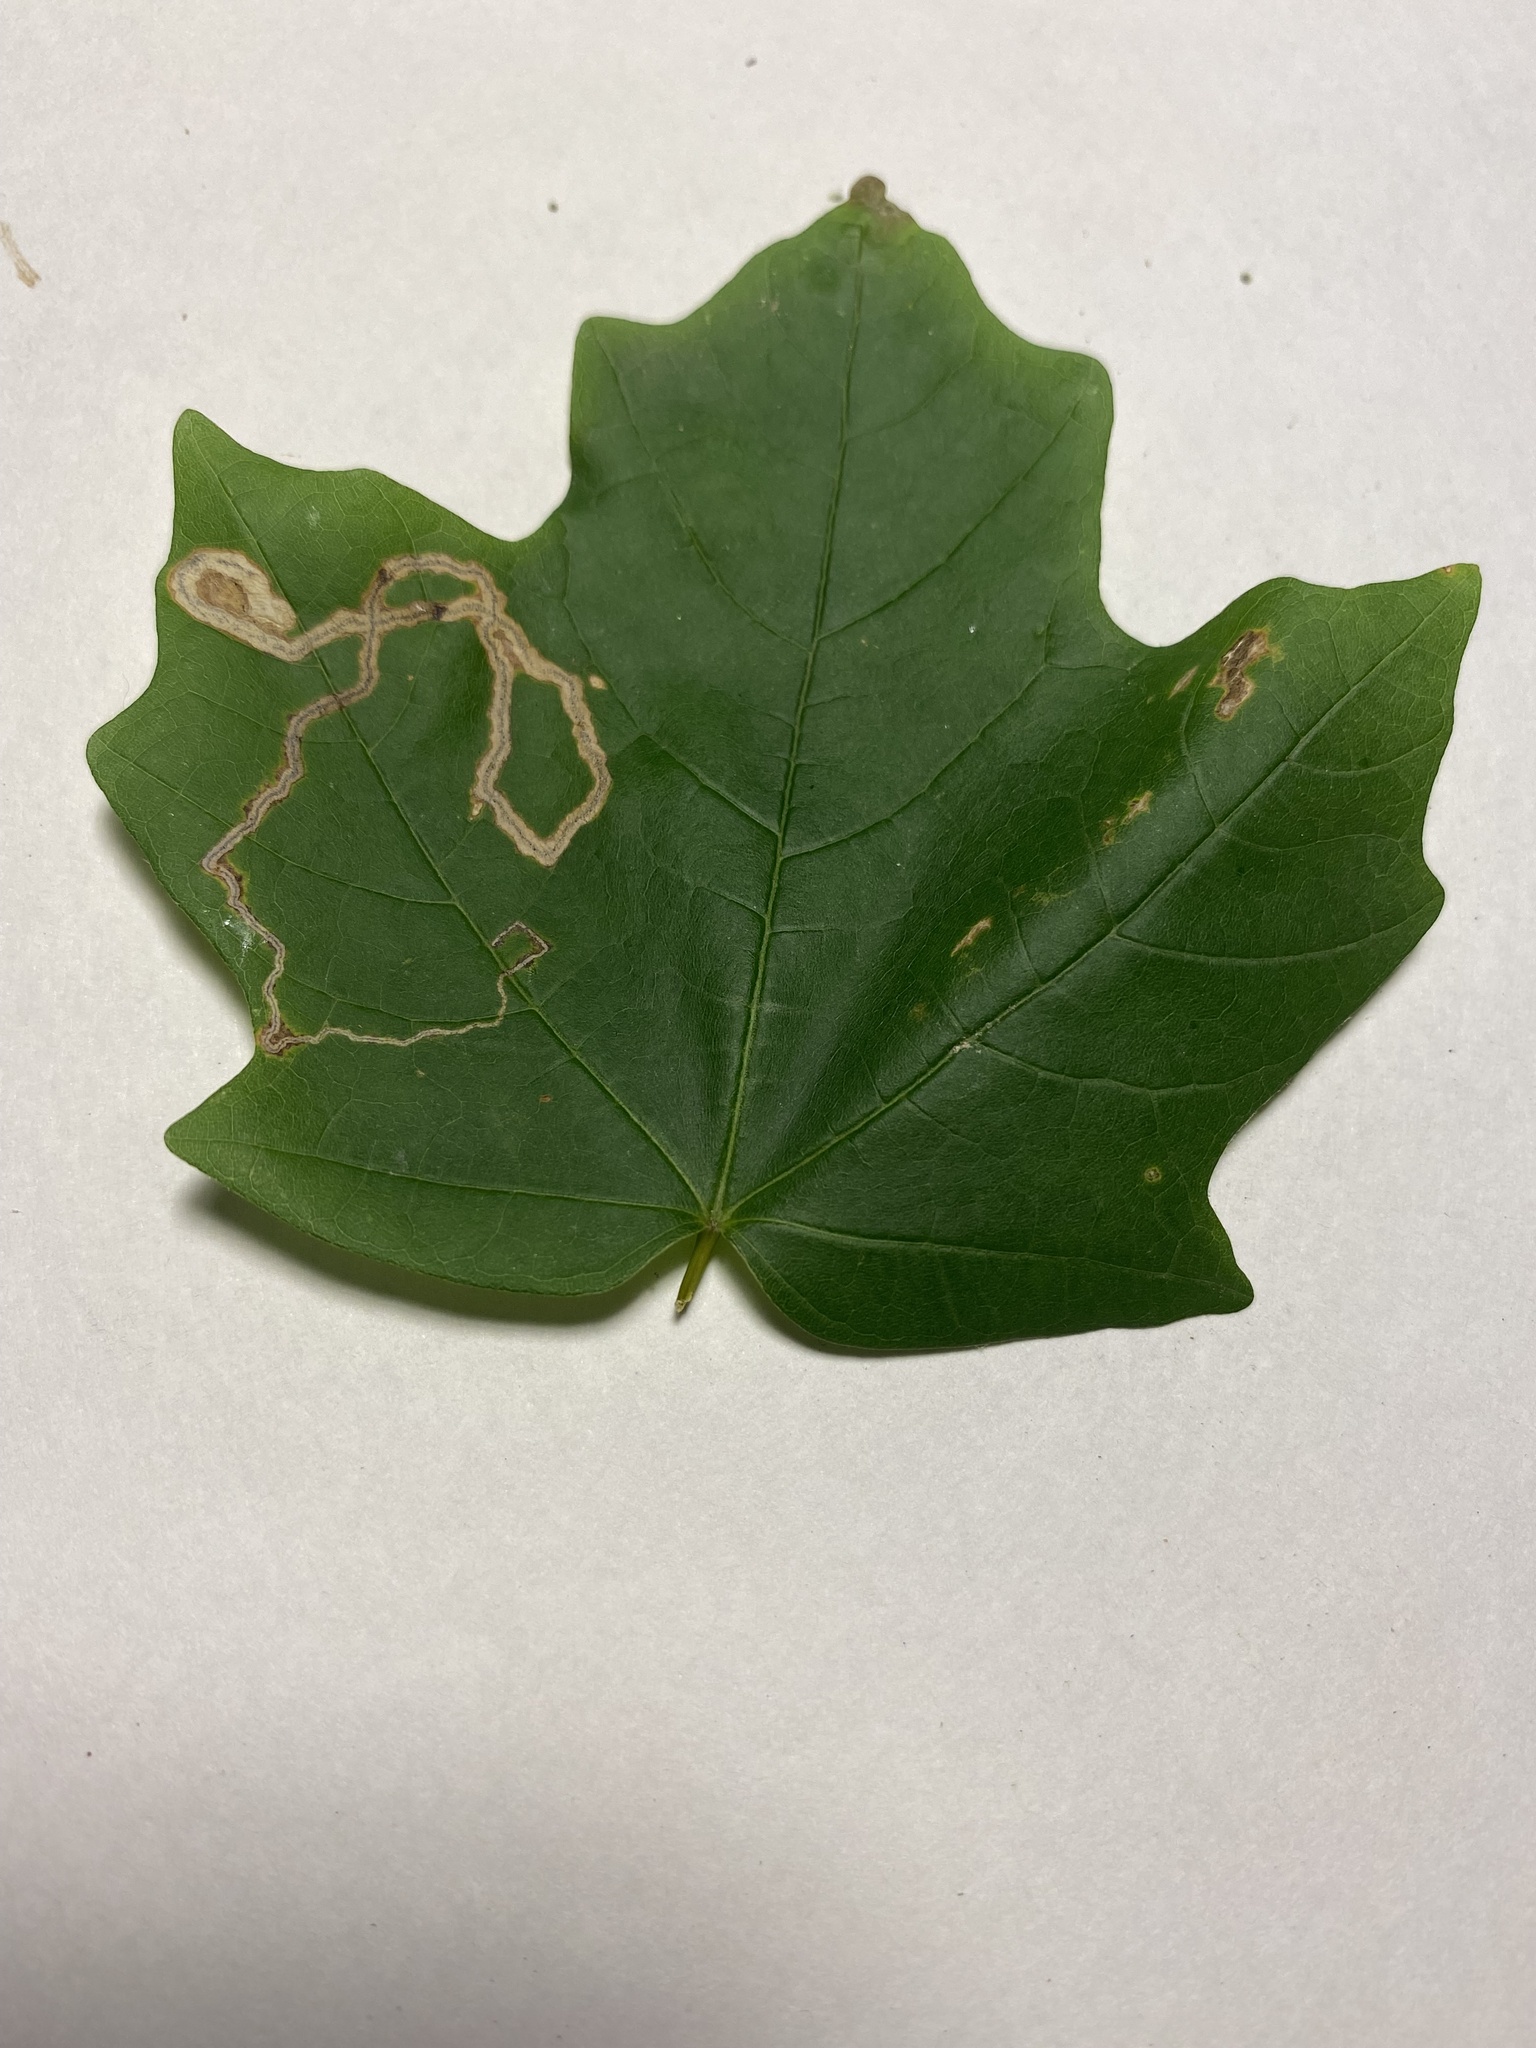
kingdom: Animalia
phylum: Arthropoda
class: Insecta
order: Lepidoptera
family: Nepticulidae
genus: Glaucolepis
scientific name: Glaucolepis saccharella
